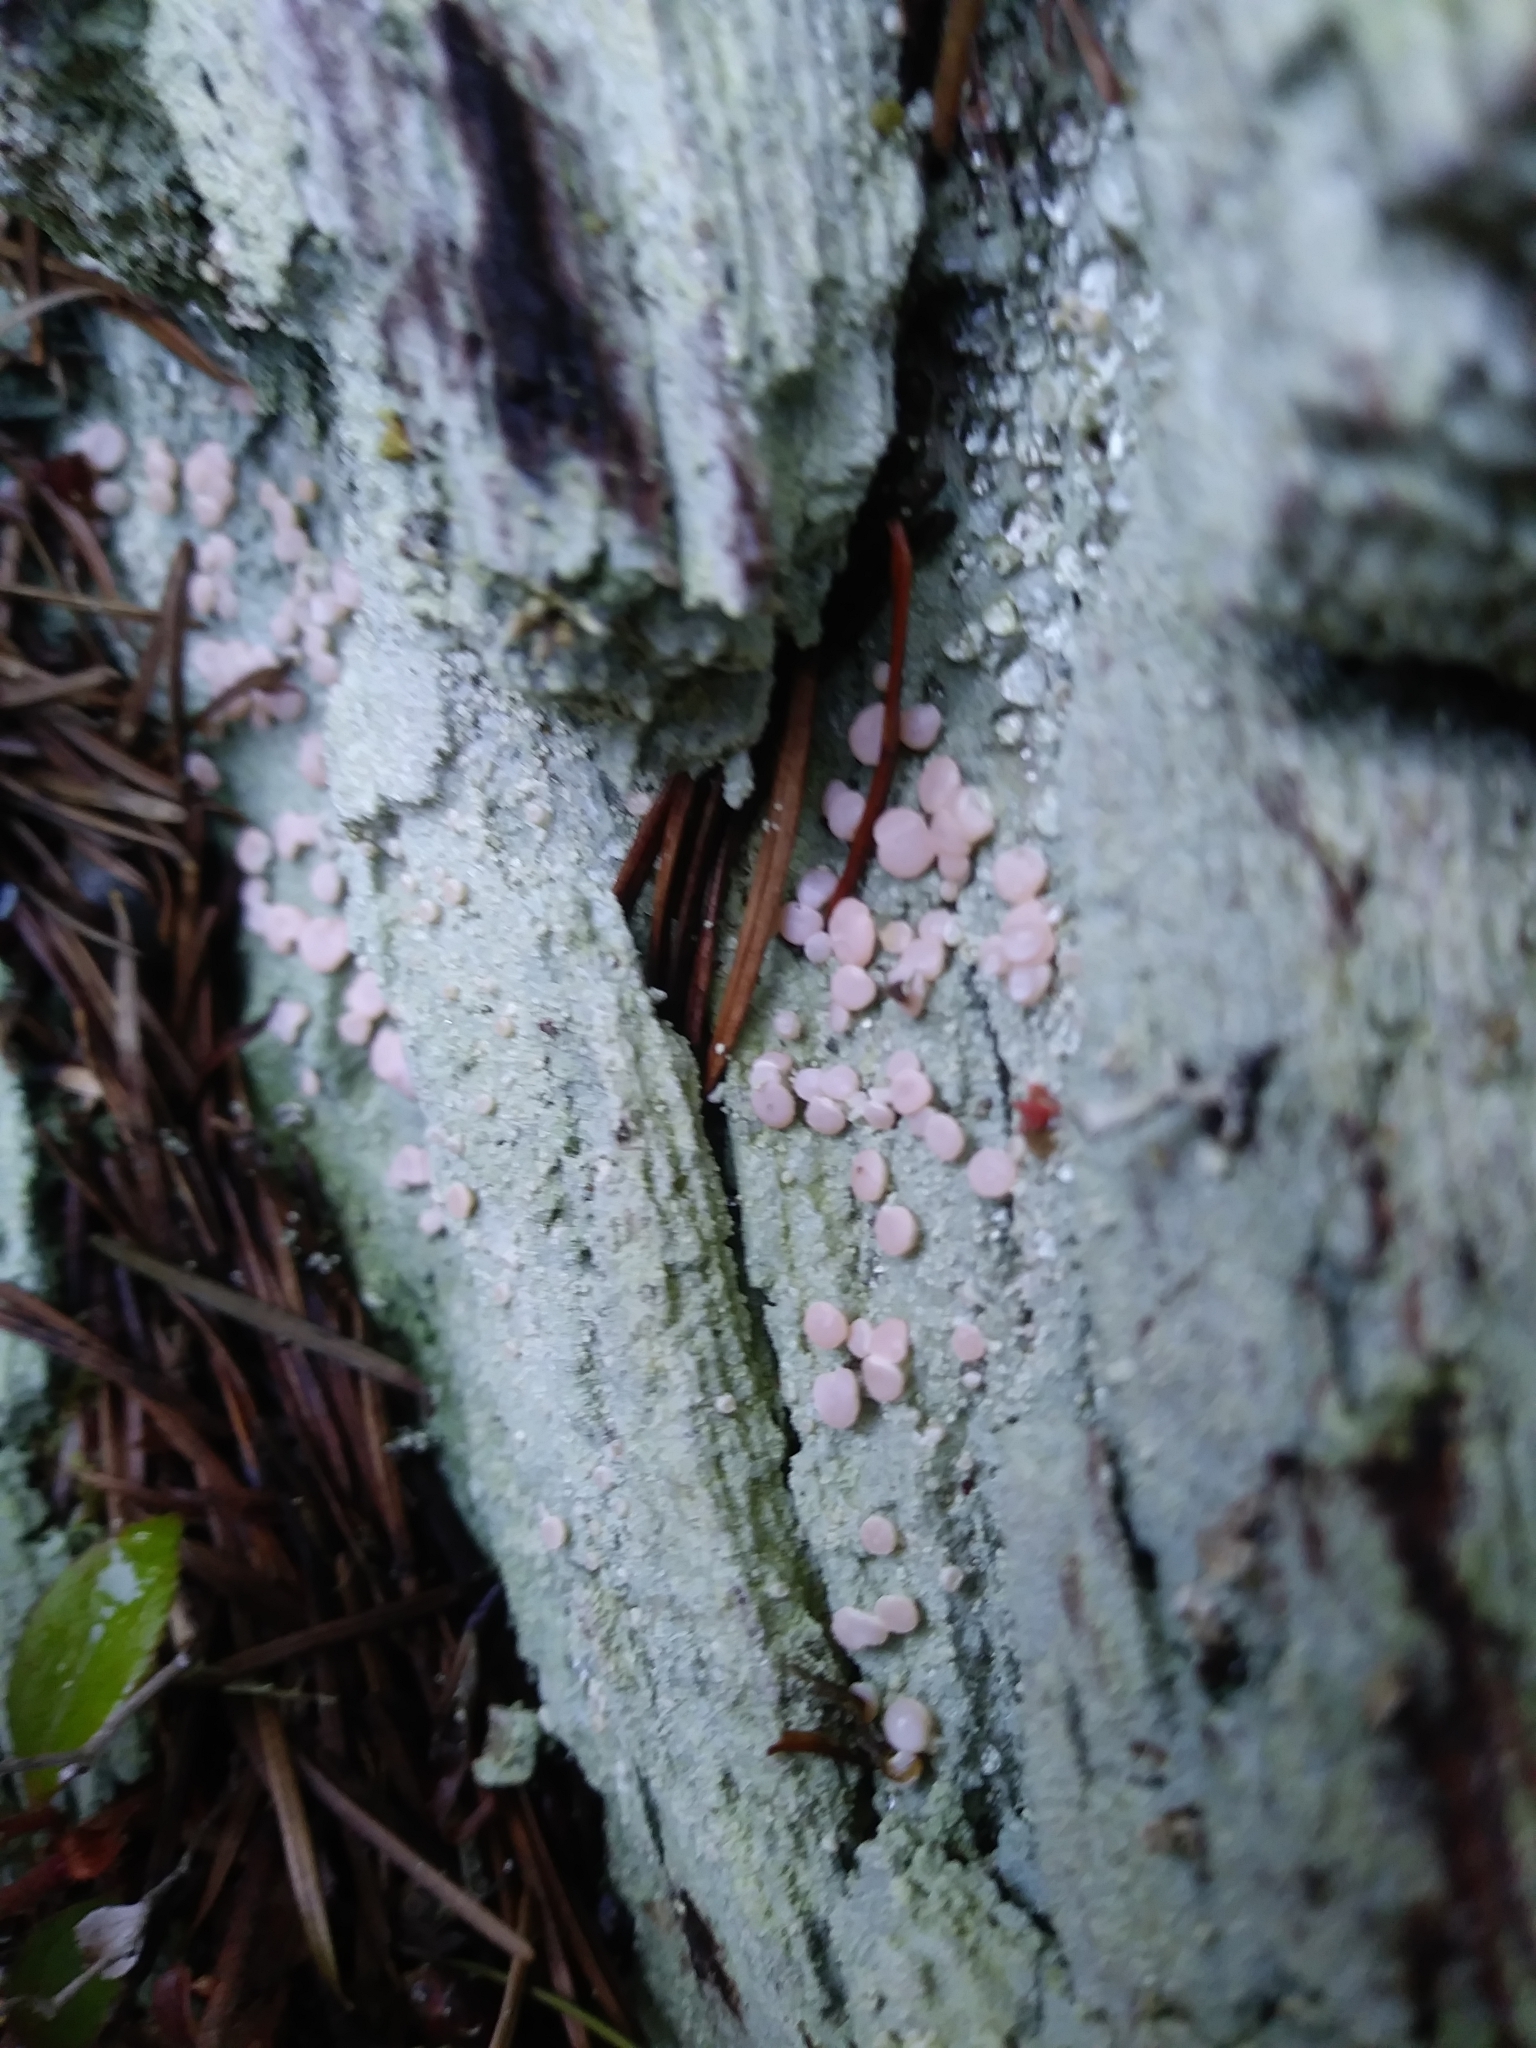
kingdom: Fungi
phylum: Ascomycota
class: Lecanoromycetes
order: Pertusariales
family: Icmadophilaceae
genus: Icmadophila
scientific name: Icmadophila ericetorum
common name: Candy lichen
